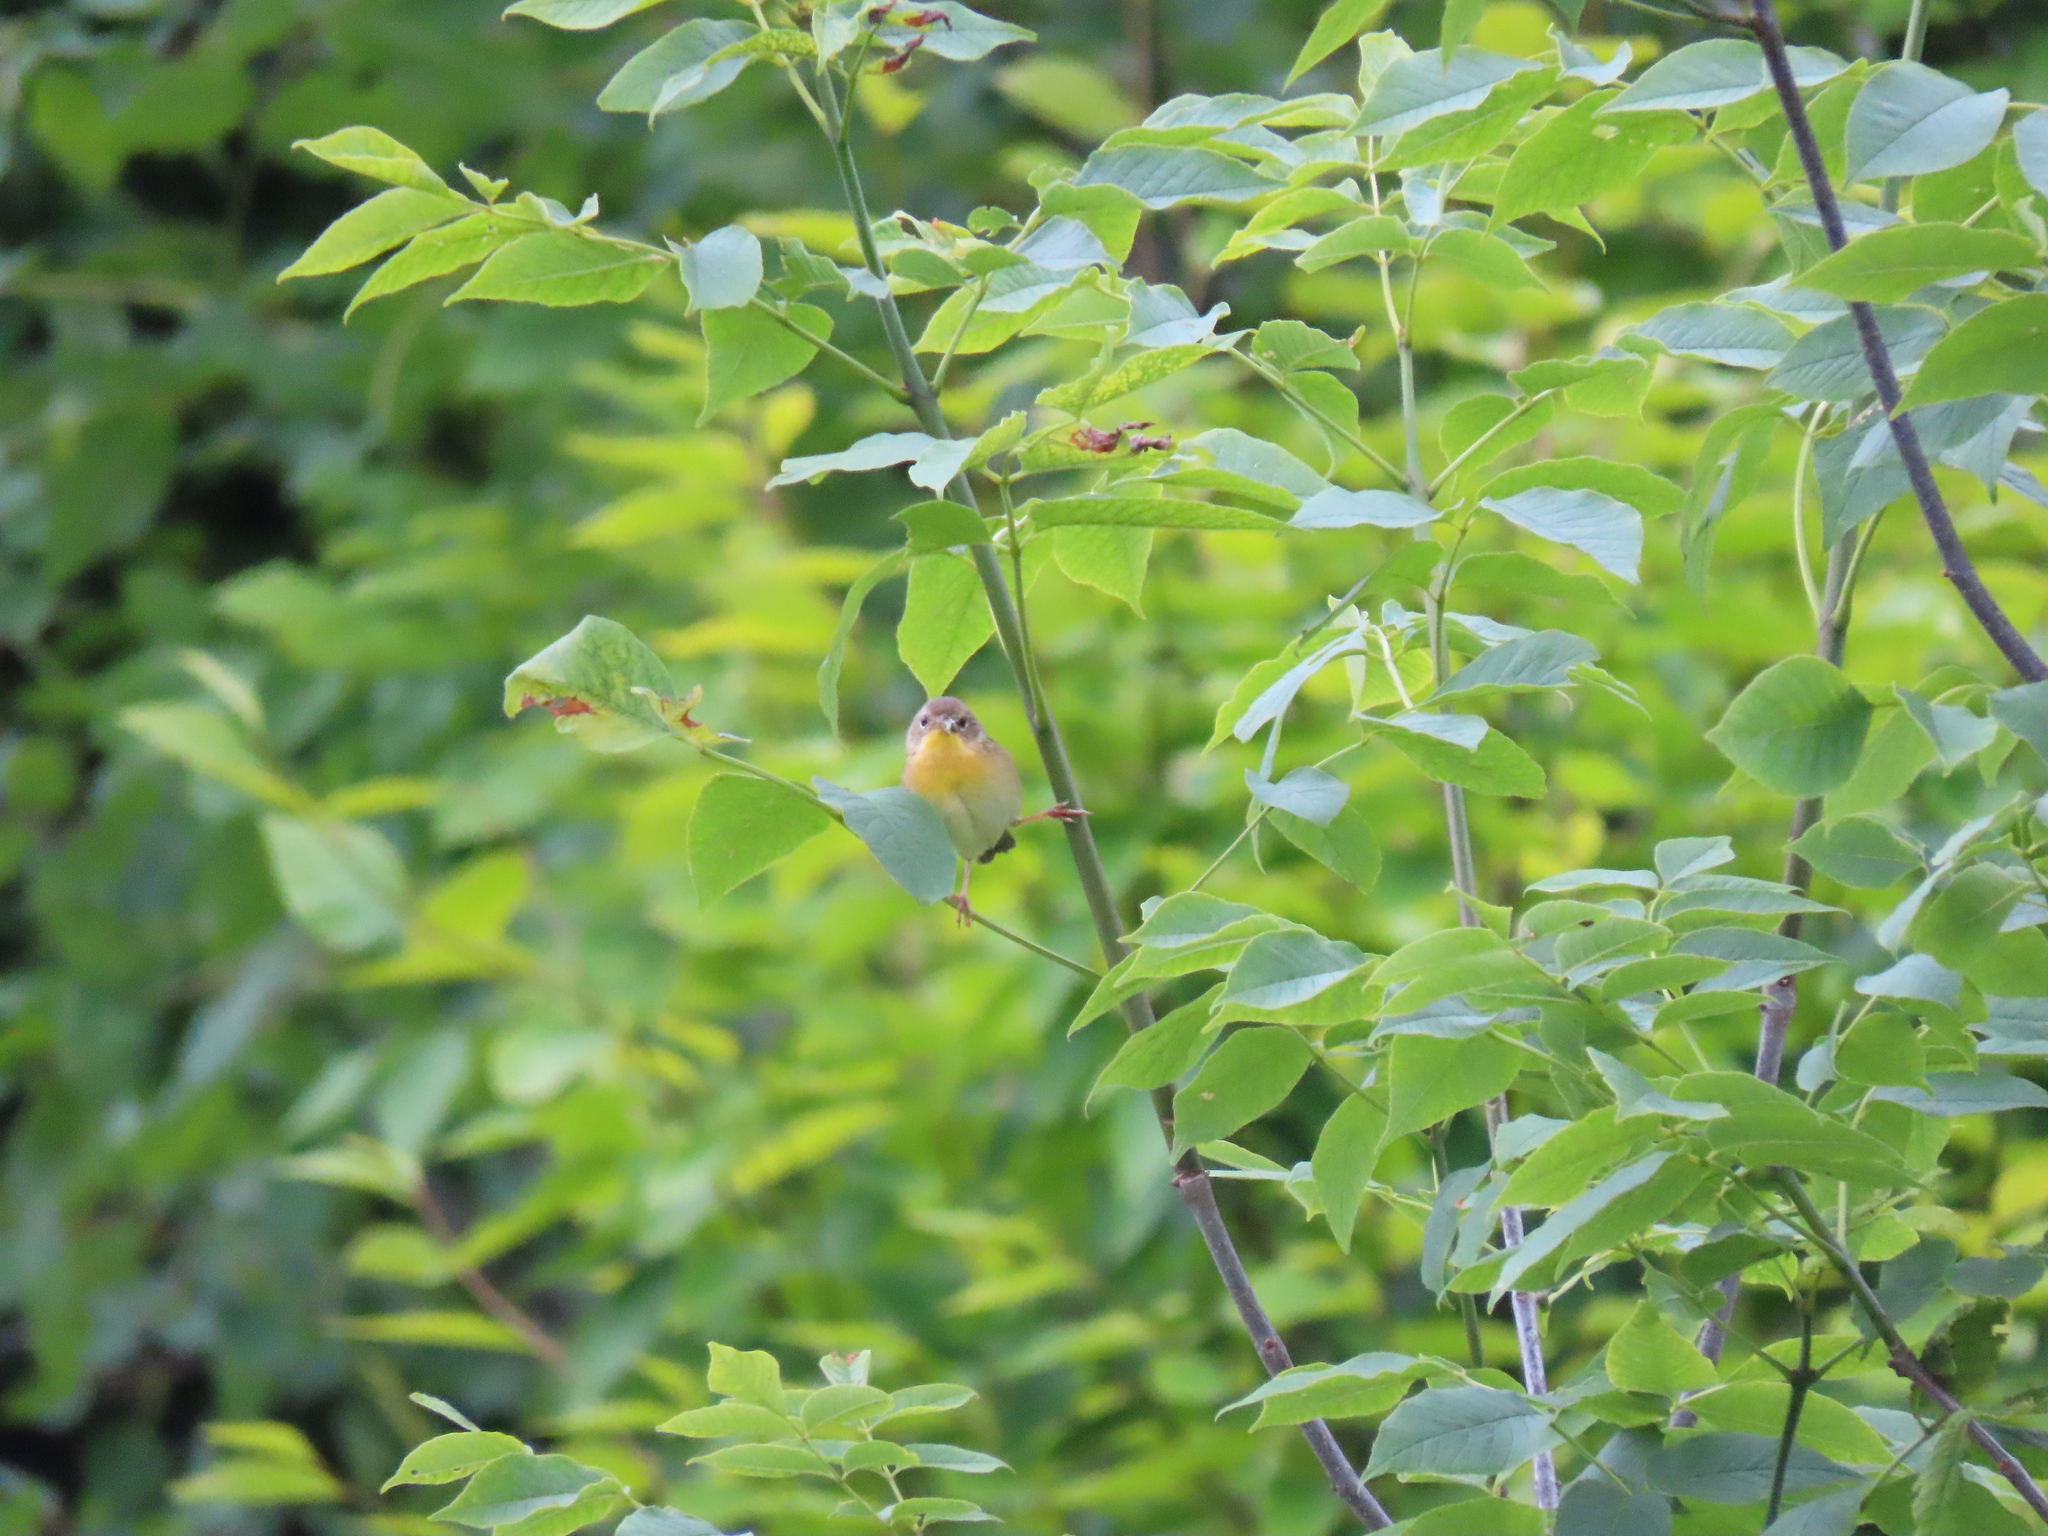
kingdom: Animalia
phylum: Chordata
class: Aves
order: Passeriformes
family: Parulidae
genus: Geothlypis
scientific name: Geothlypis trichas
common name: Common yellowthroat
